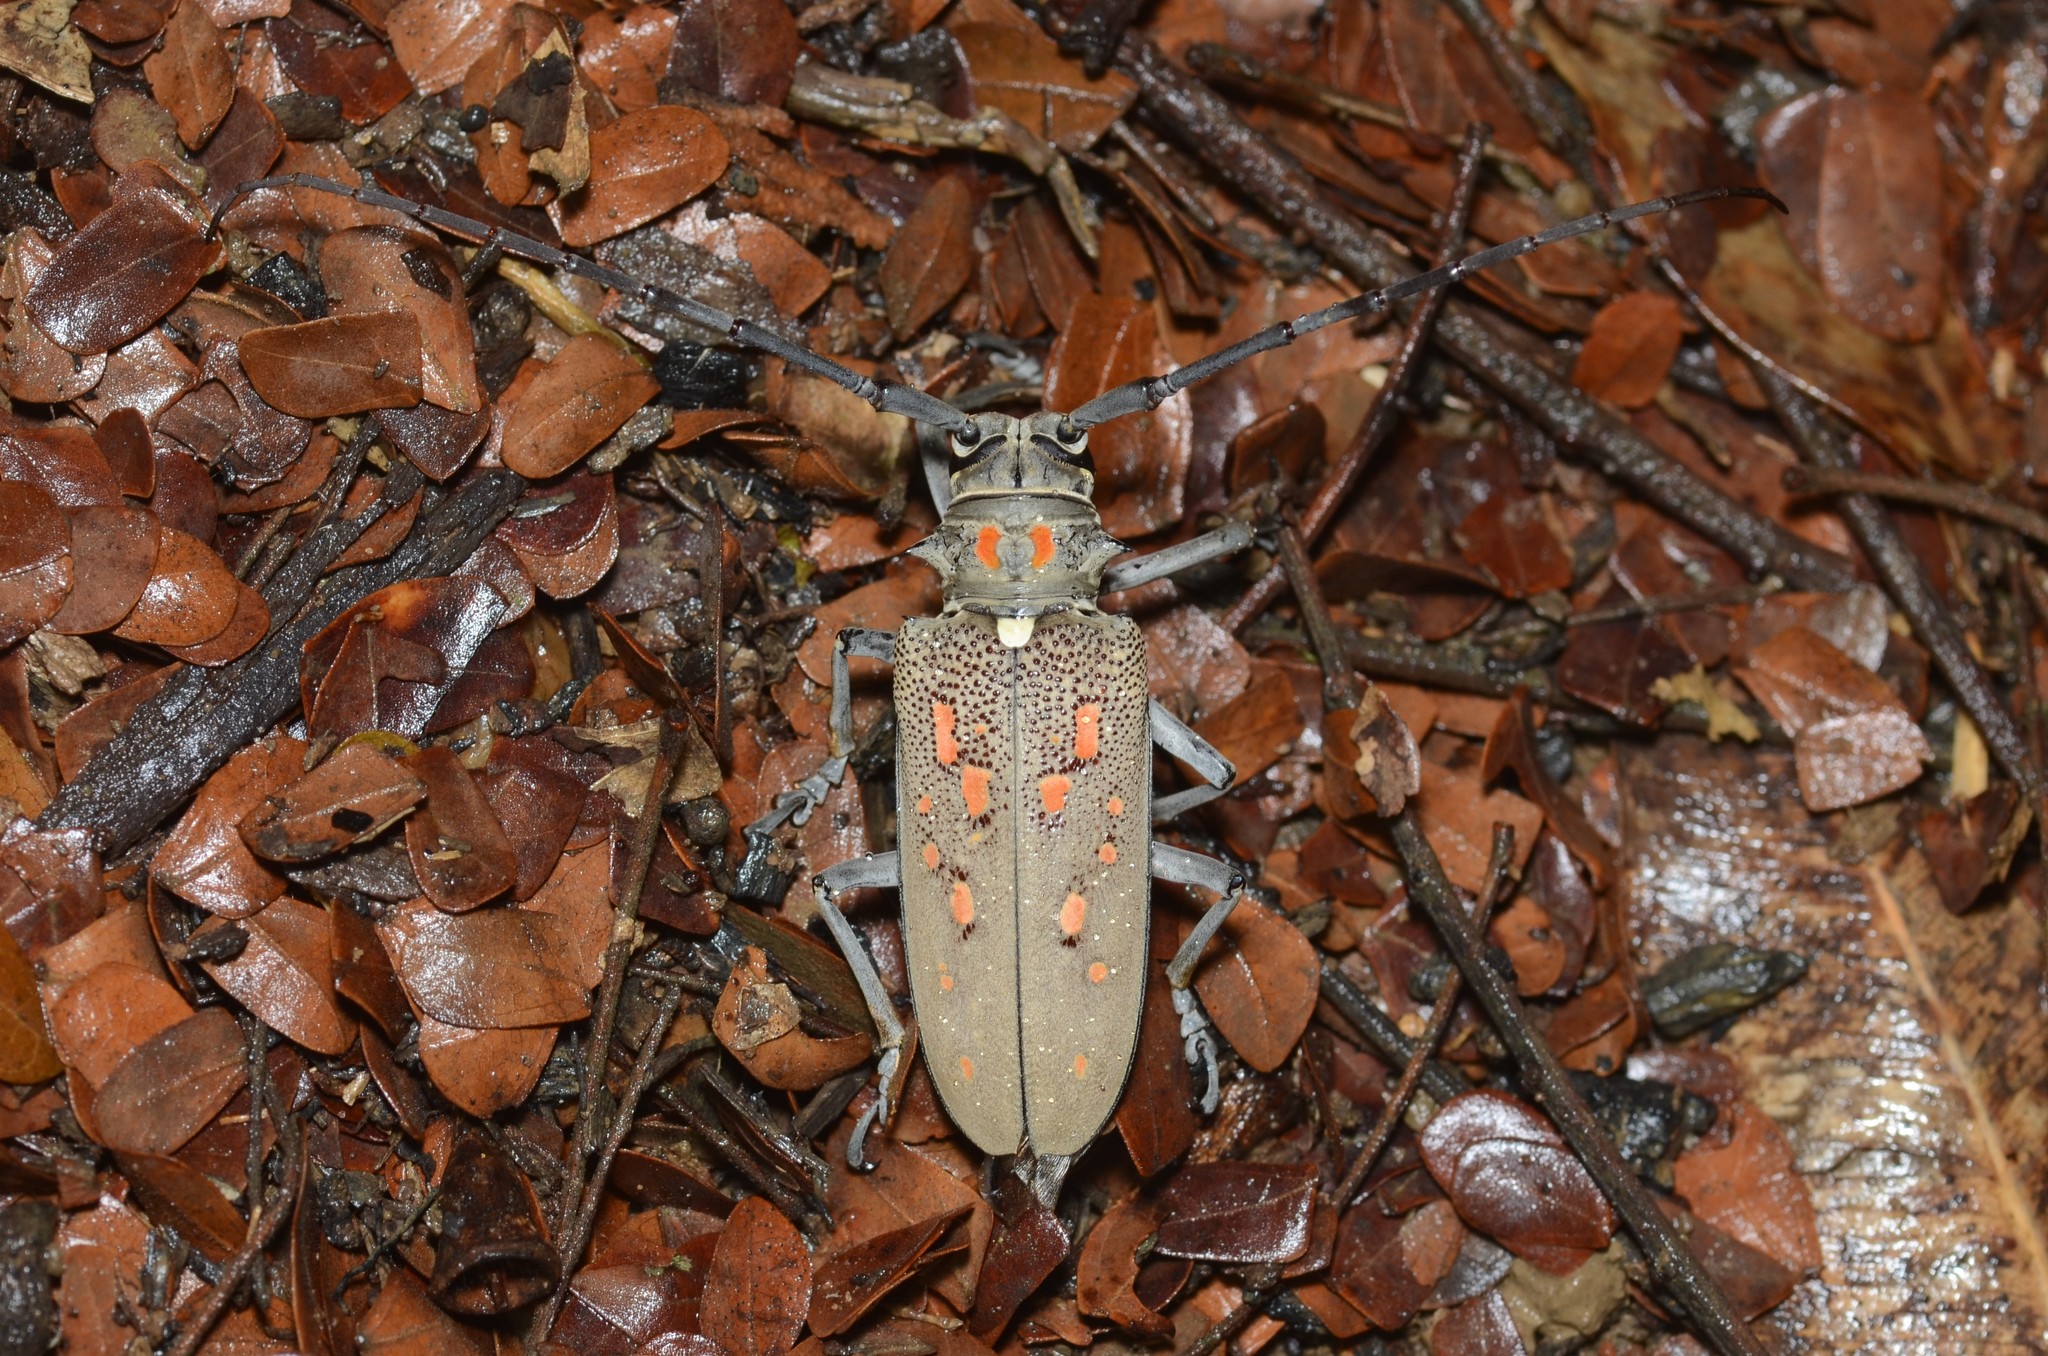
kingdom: Animalia
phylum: Arthropoda
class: Insecta
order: Coleoptera
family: Cerambycidae
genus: Batocera
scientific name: Batocera rufomaculata
